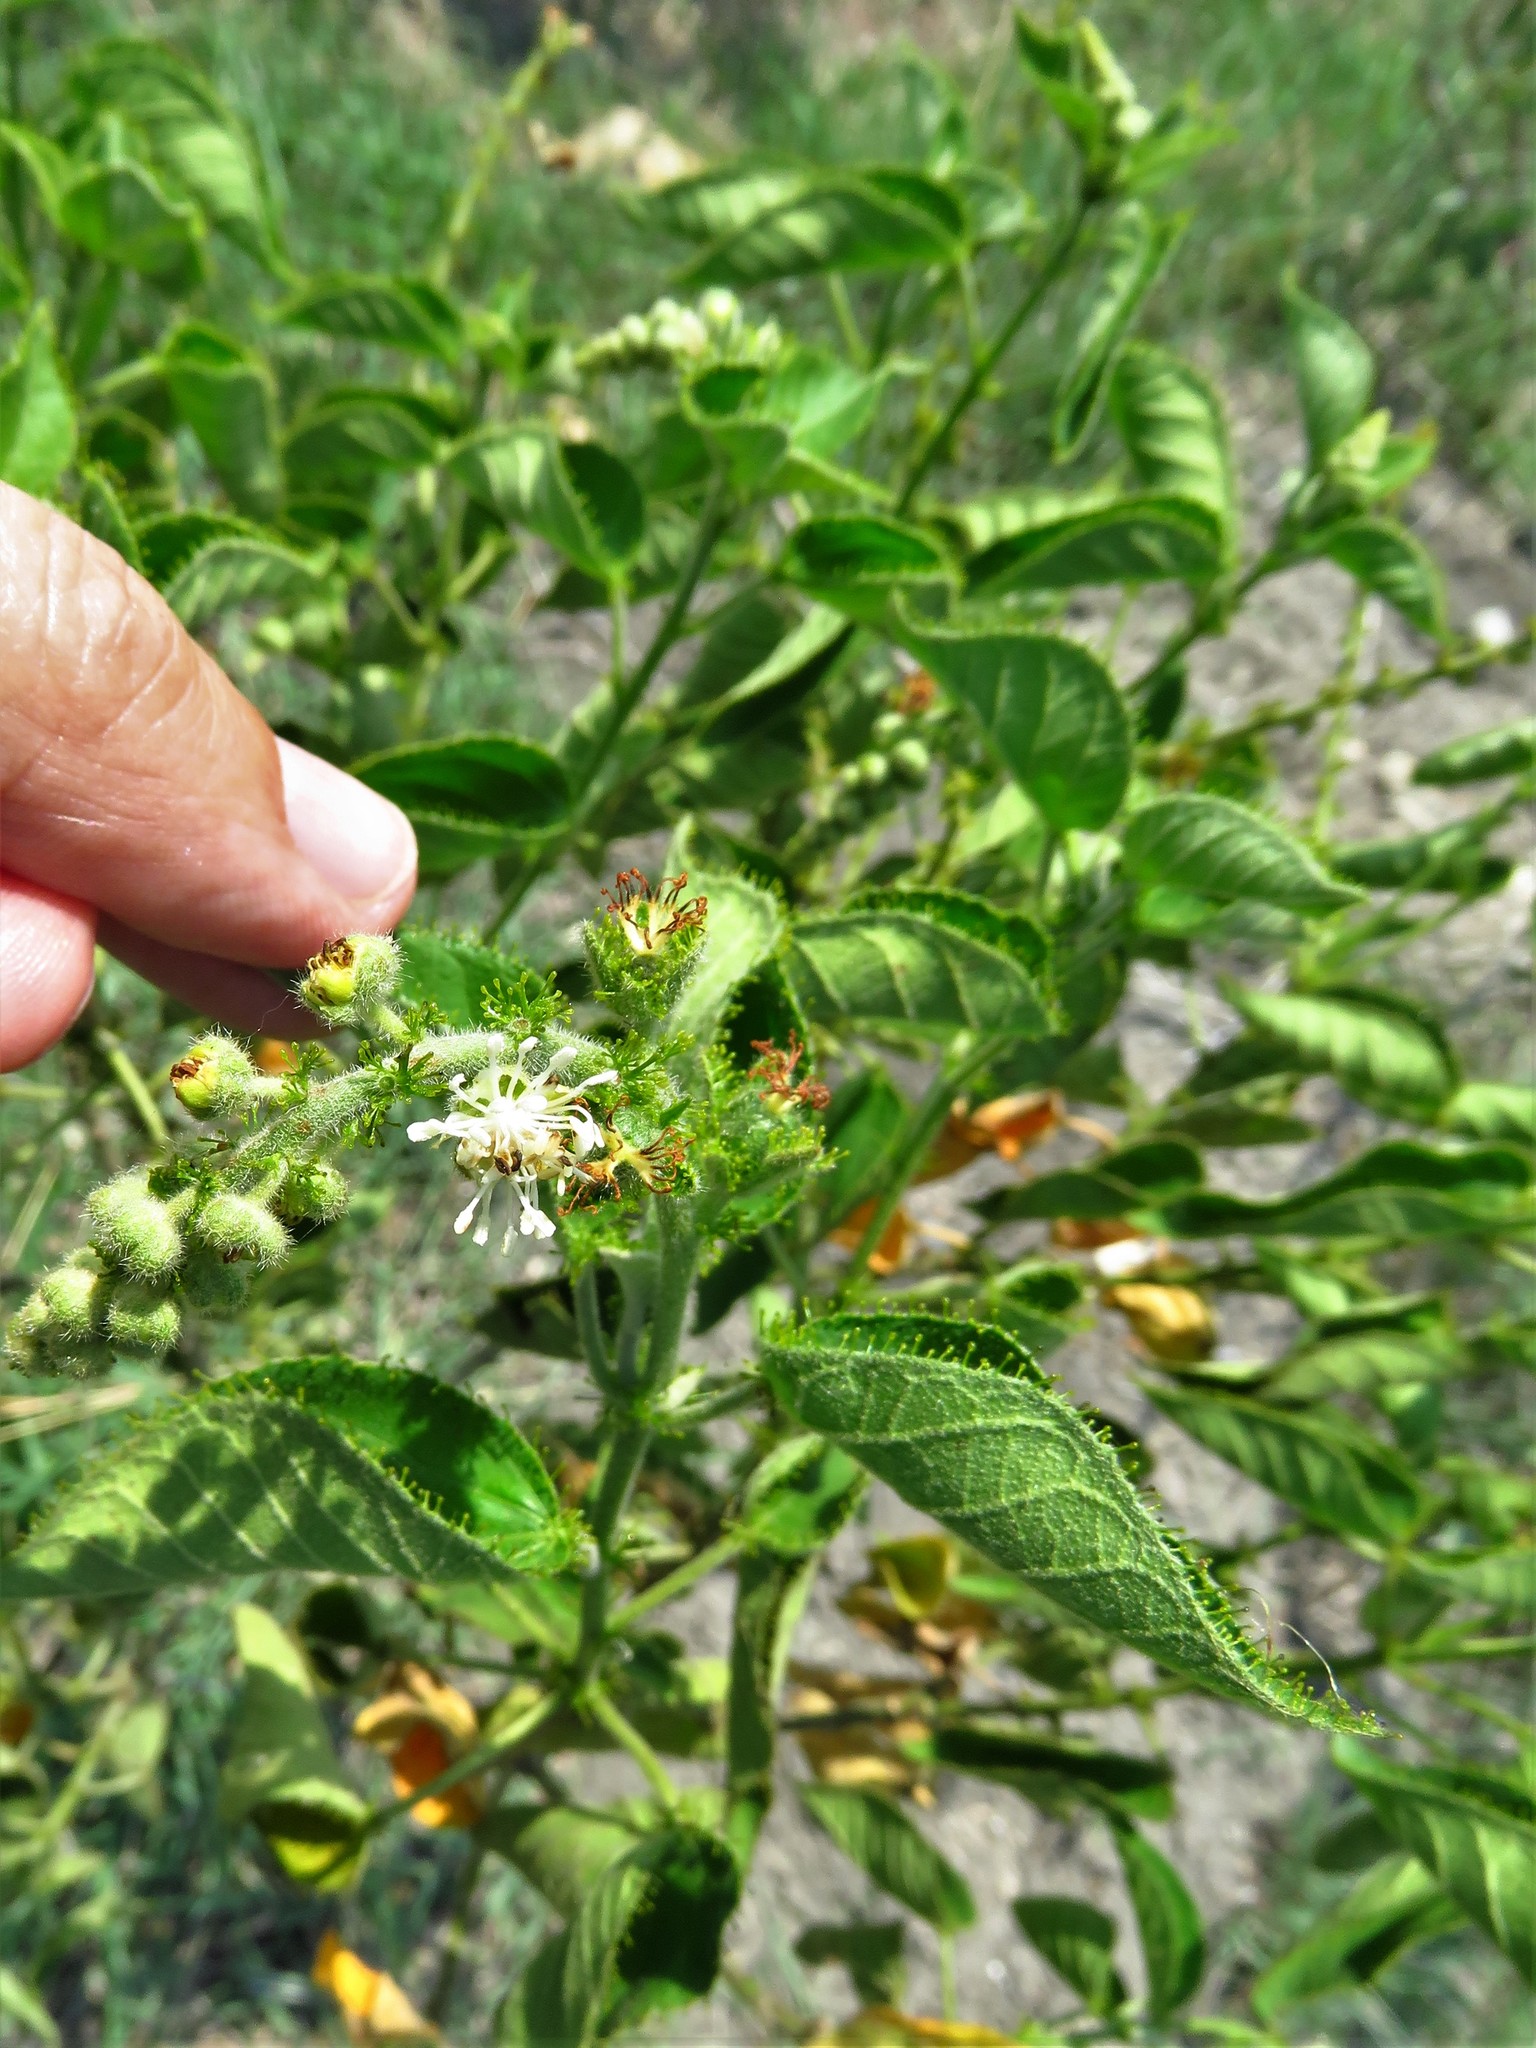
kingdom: Plantae
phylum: Tracheophyta
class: Magnoliopsida
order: Malpighiales
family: Euphorbiaceae
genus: Croton
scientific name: Croton ciliatoglandulifer
